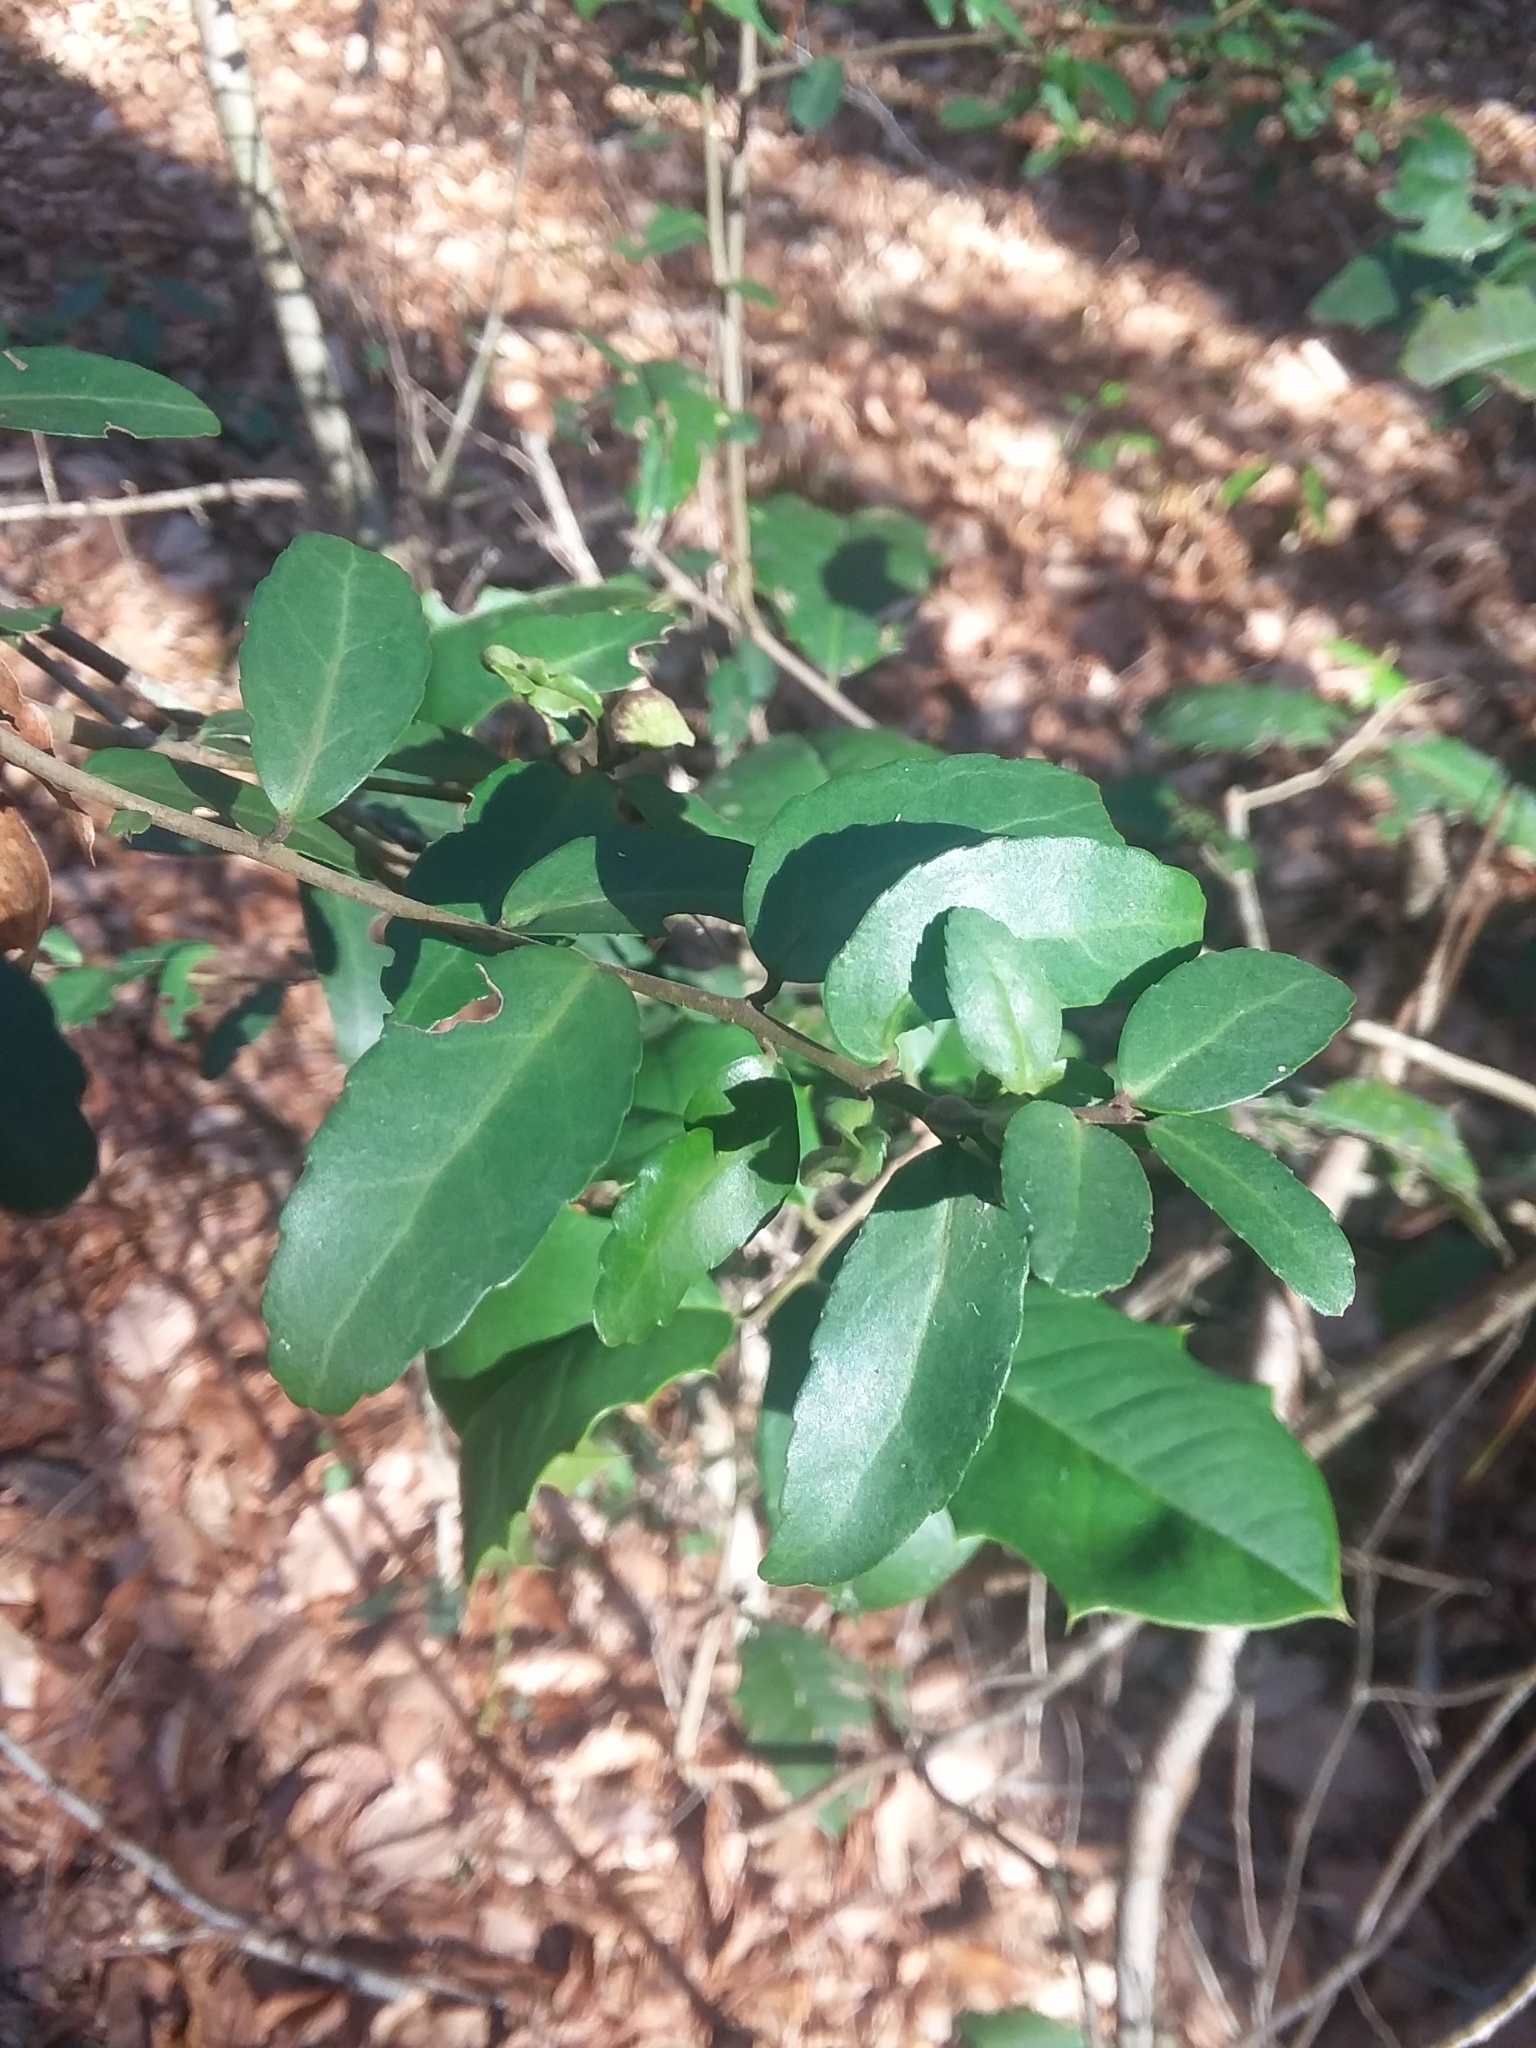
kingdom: Plantae
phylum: Tracheophyta
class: Magnoliopsida
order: Aquifoliales
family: Aquifoliaceae
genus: Ilex
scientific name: Ilex vomitoria
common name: Yaupon holly
